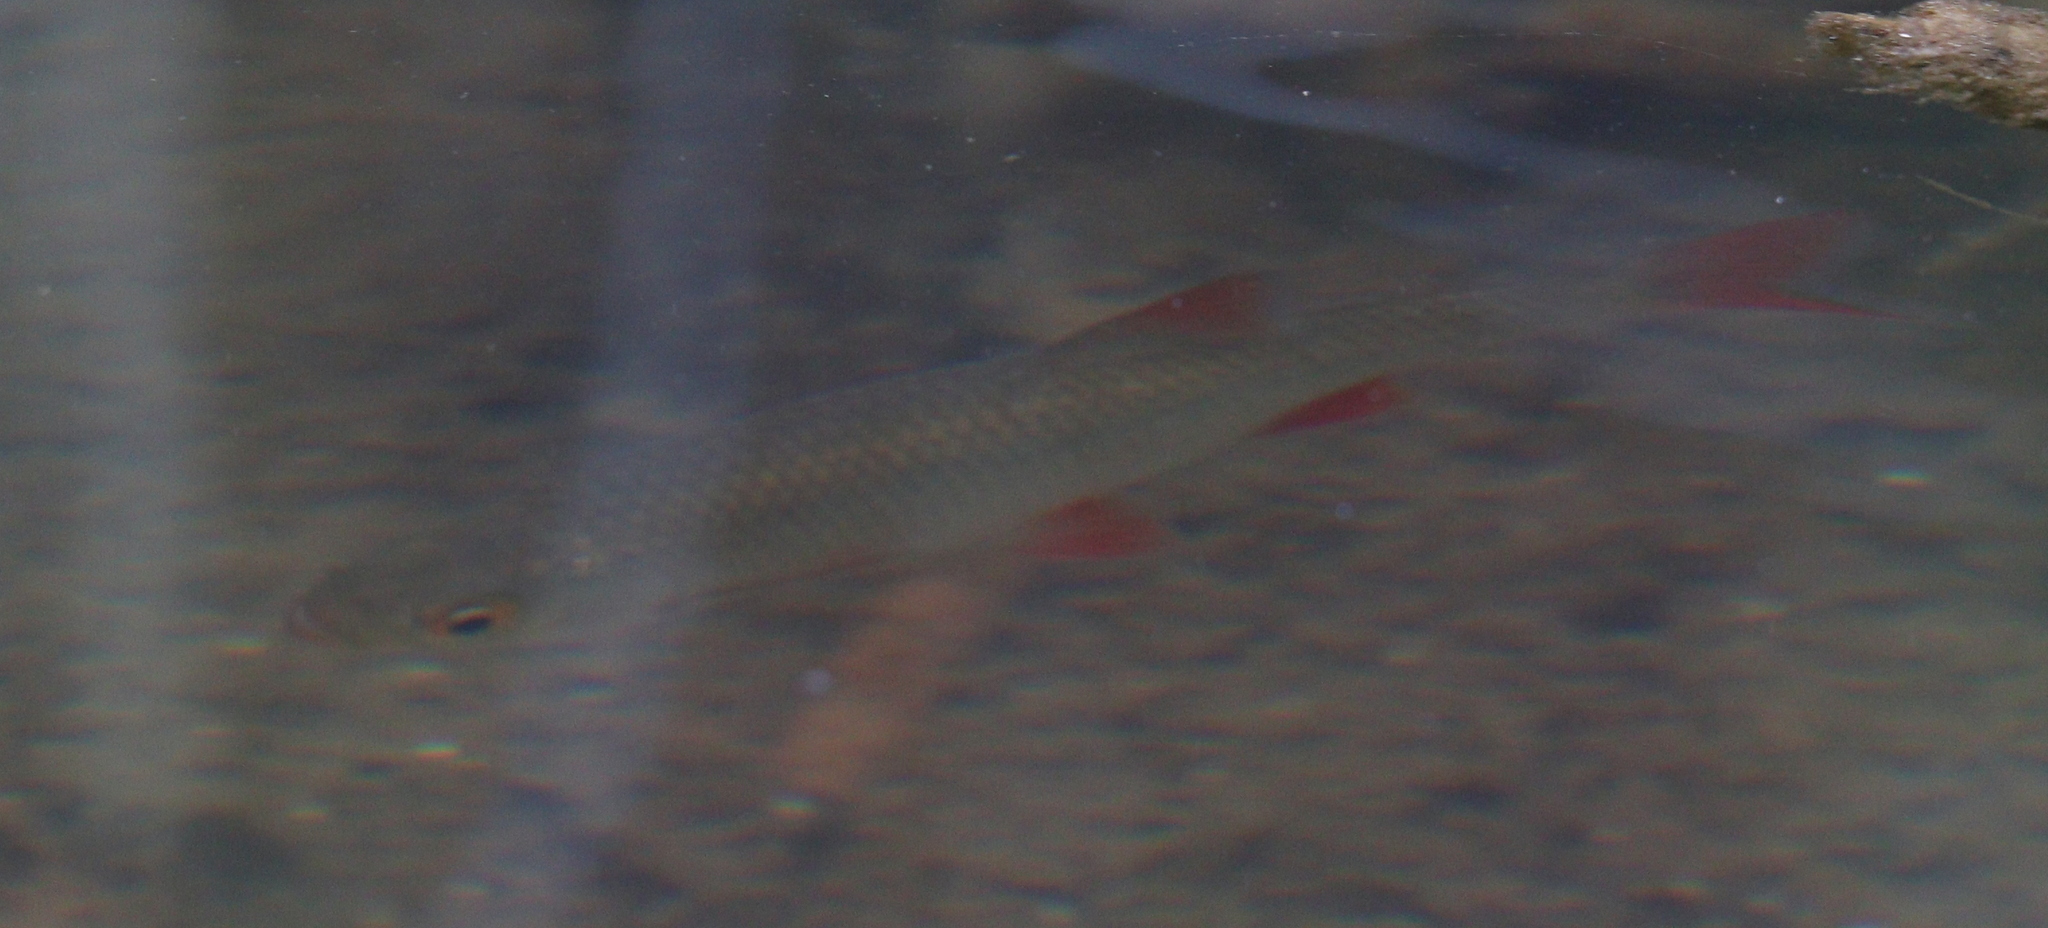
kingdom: Animalia
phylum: Chordata
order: Cypriniformes
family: Cyprinidae
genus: Scardinius
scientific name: Scardinius erythrophthalmus
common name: Rudd
